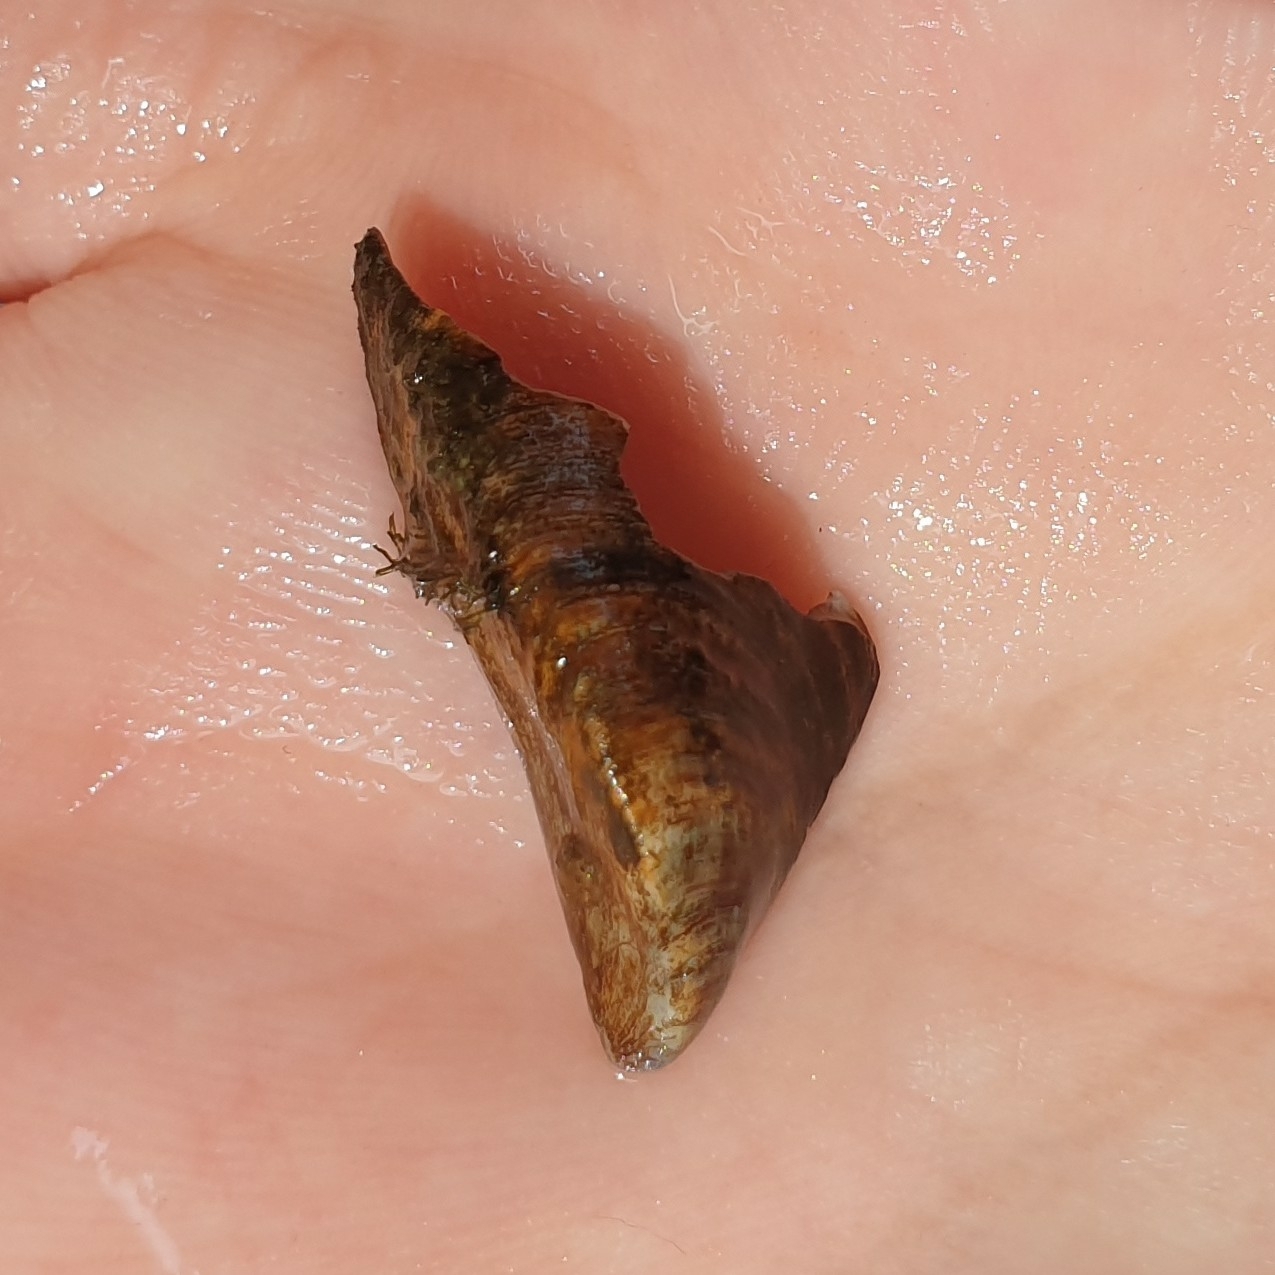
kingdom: Animalia
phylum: Mollusca
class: Bivalvia
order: Myida
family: Dreissenidae
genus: Dreissena
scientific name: Dreissena polymorpha
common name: Zebra mussel
